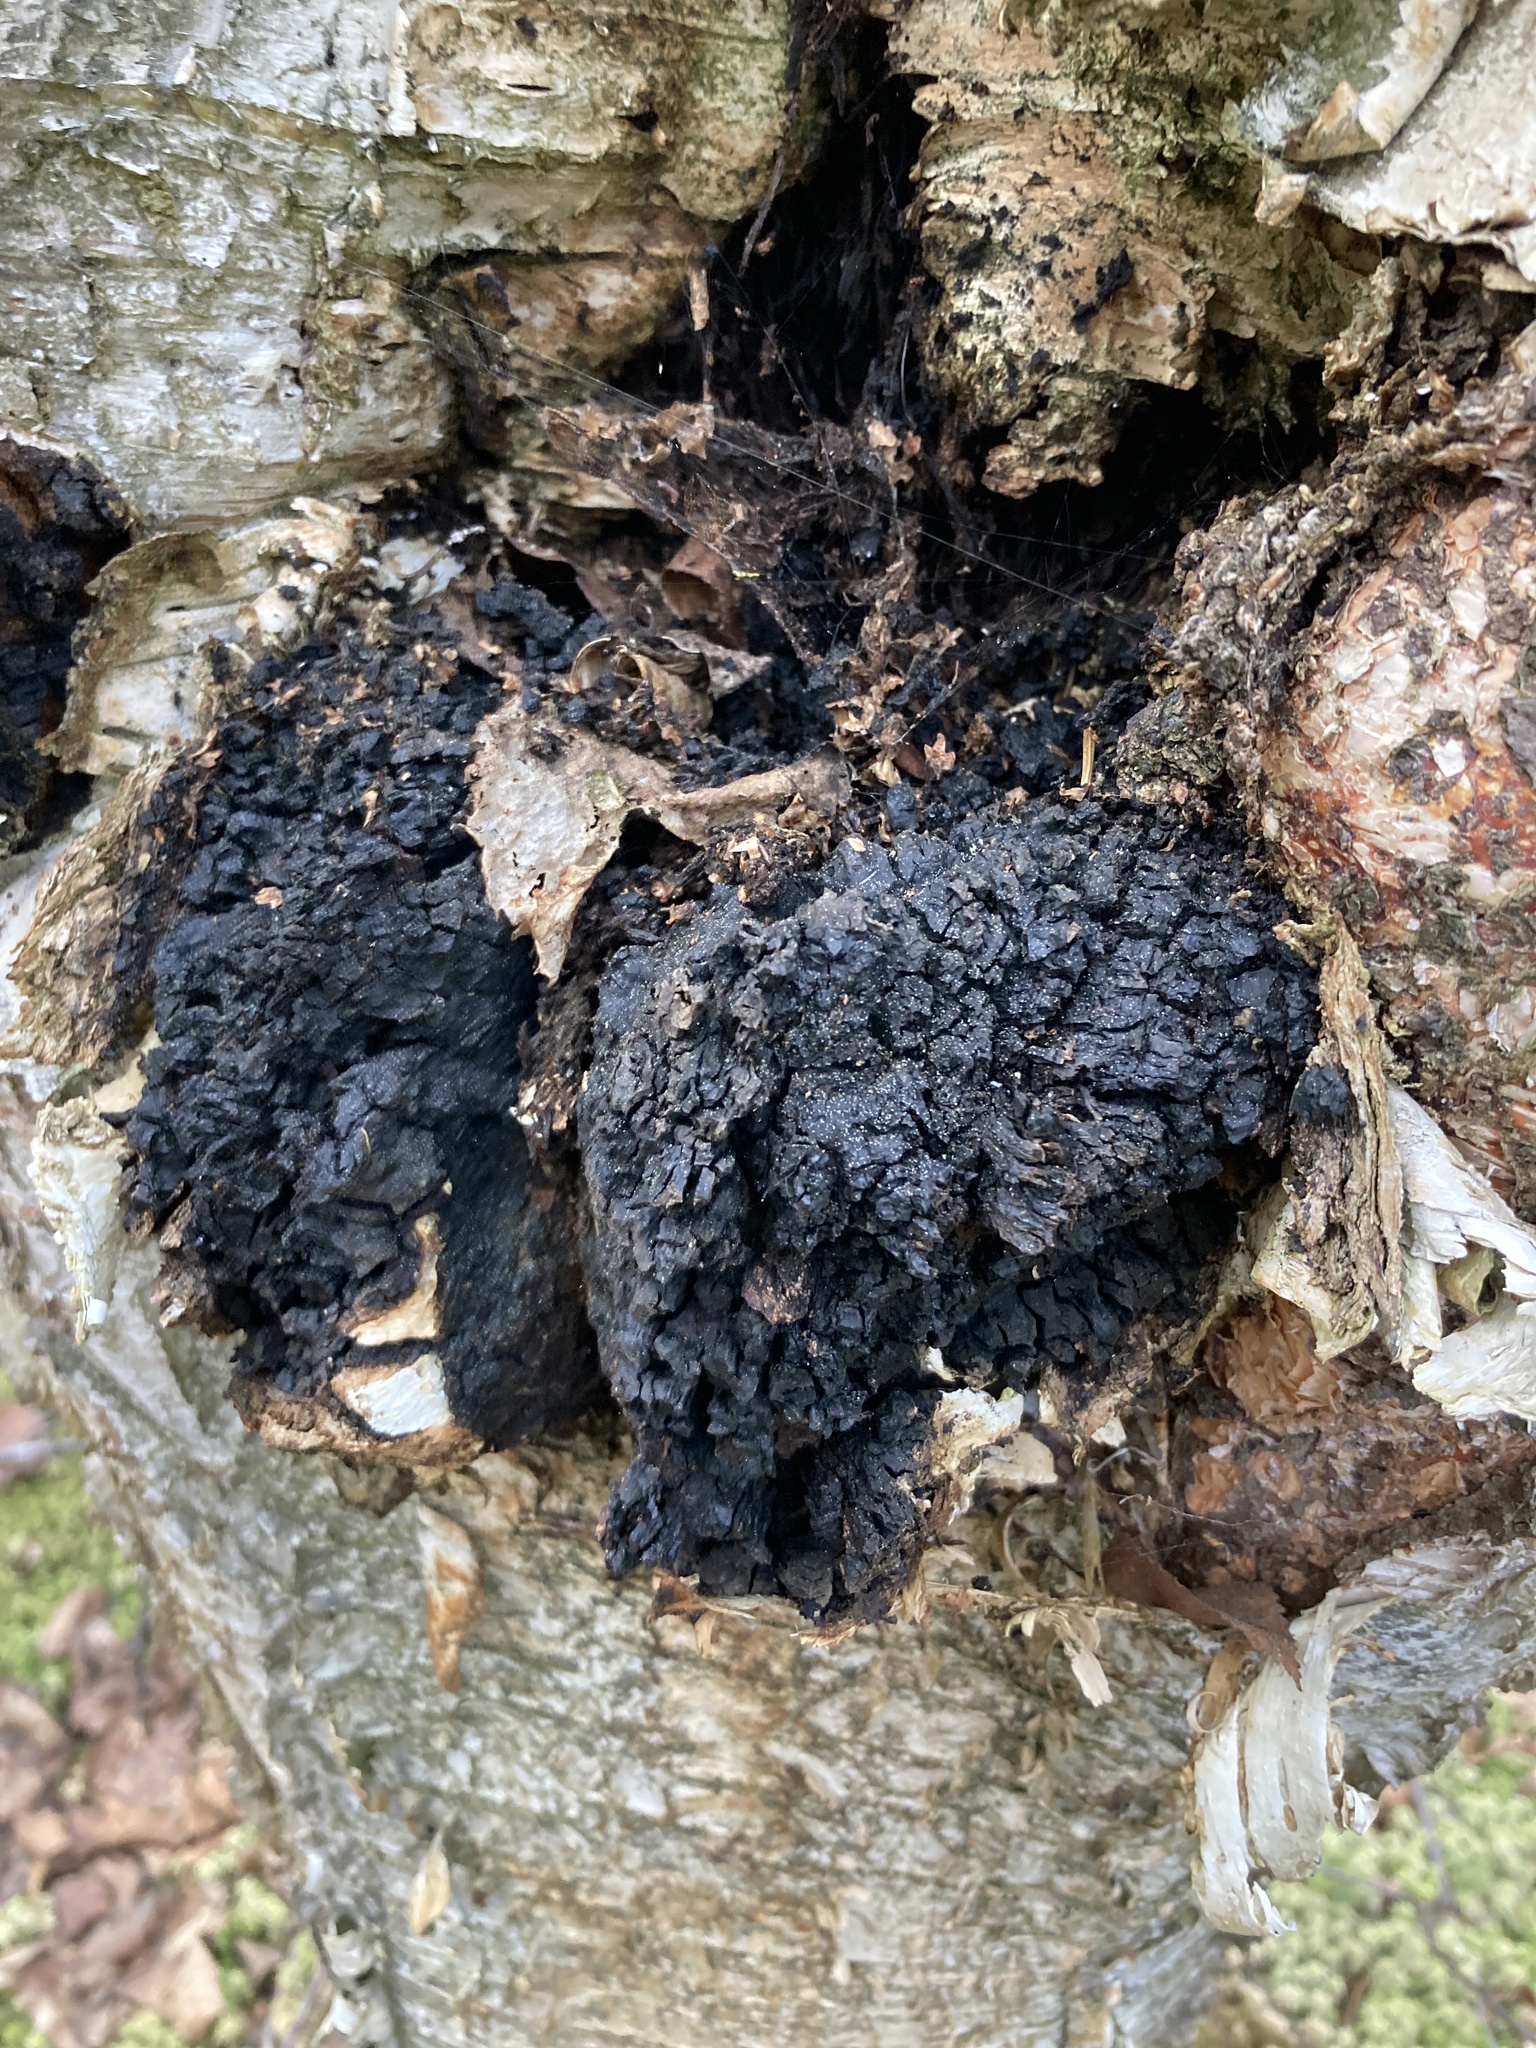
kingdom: Fungi
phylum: Basidiomycota
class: Agaricomycetes
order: Hymenochaetales
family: Hymenochaetaceae
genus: Inonotus
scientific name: Inonotus obliquus
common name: Chaga
